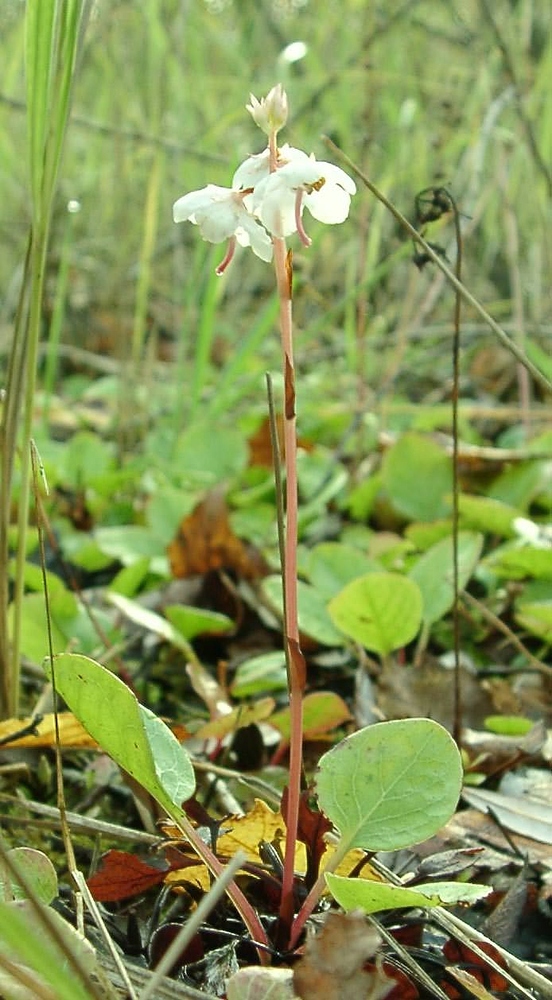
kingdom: Plantae
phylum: Tracheophyta
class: Magnoliopsida
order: Ericales
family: Ericaceae
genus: Pyrola
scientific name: Pyrola rotundifolia
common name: Round-leaved wintergreen
